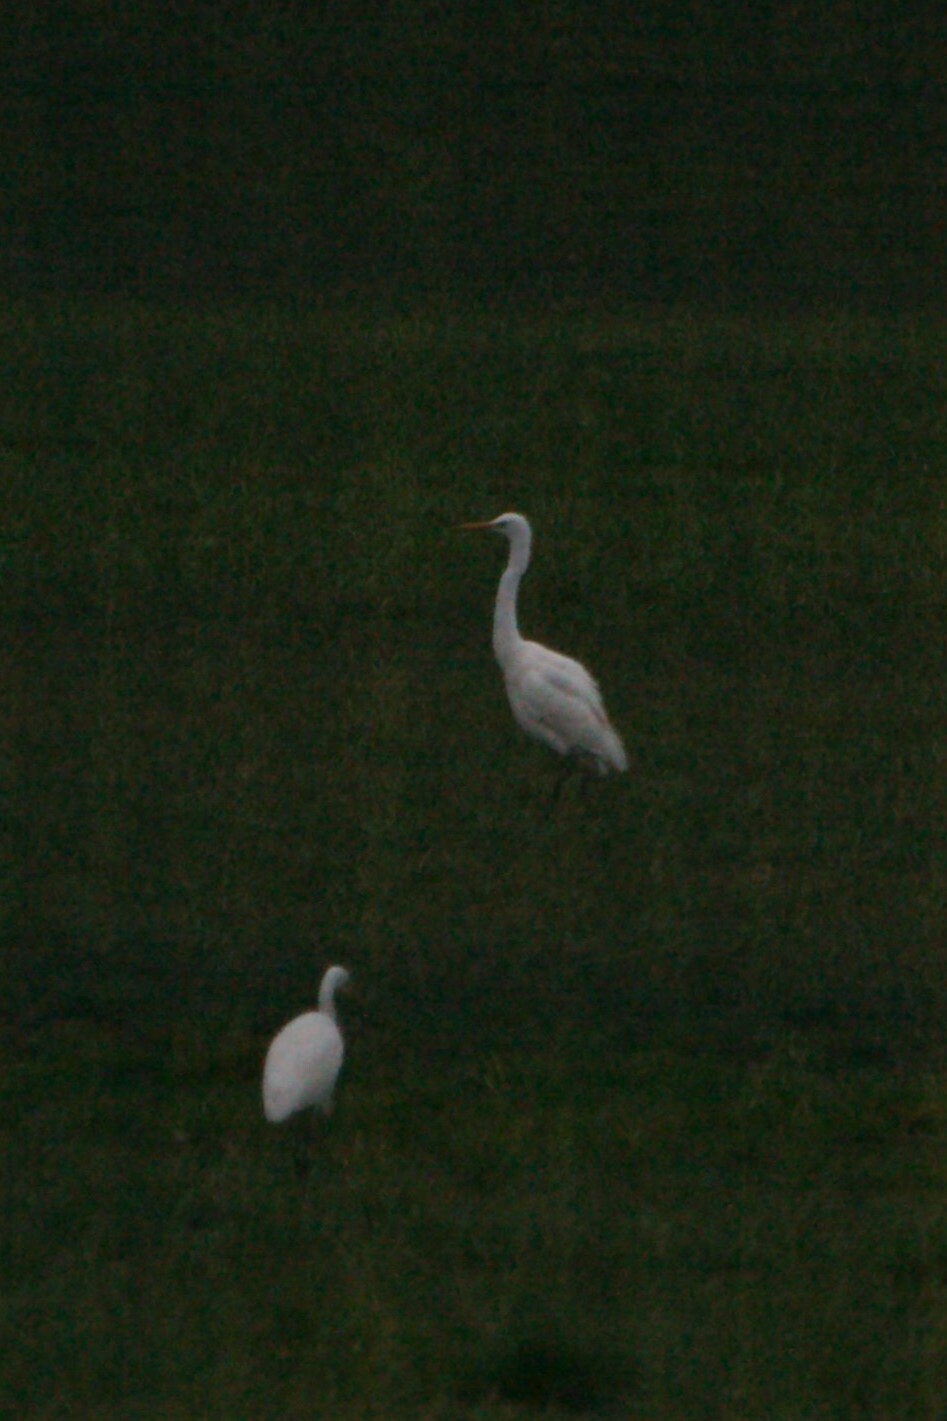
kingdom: Animalia
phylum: Chordata
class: Aves
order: Pelecaniformes
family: Ardeidae
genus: Ardea
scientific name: Ardea alba
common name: Great egret
